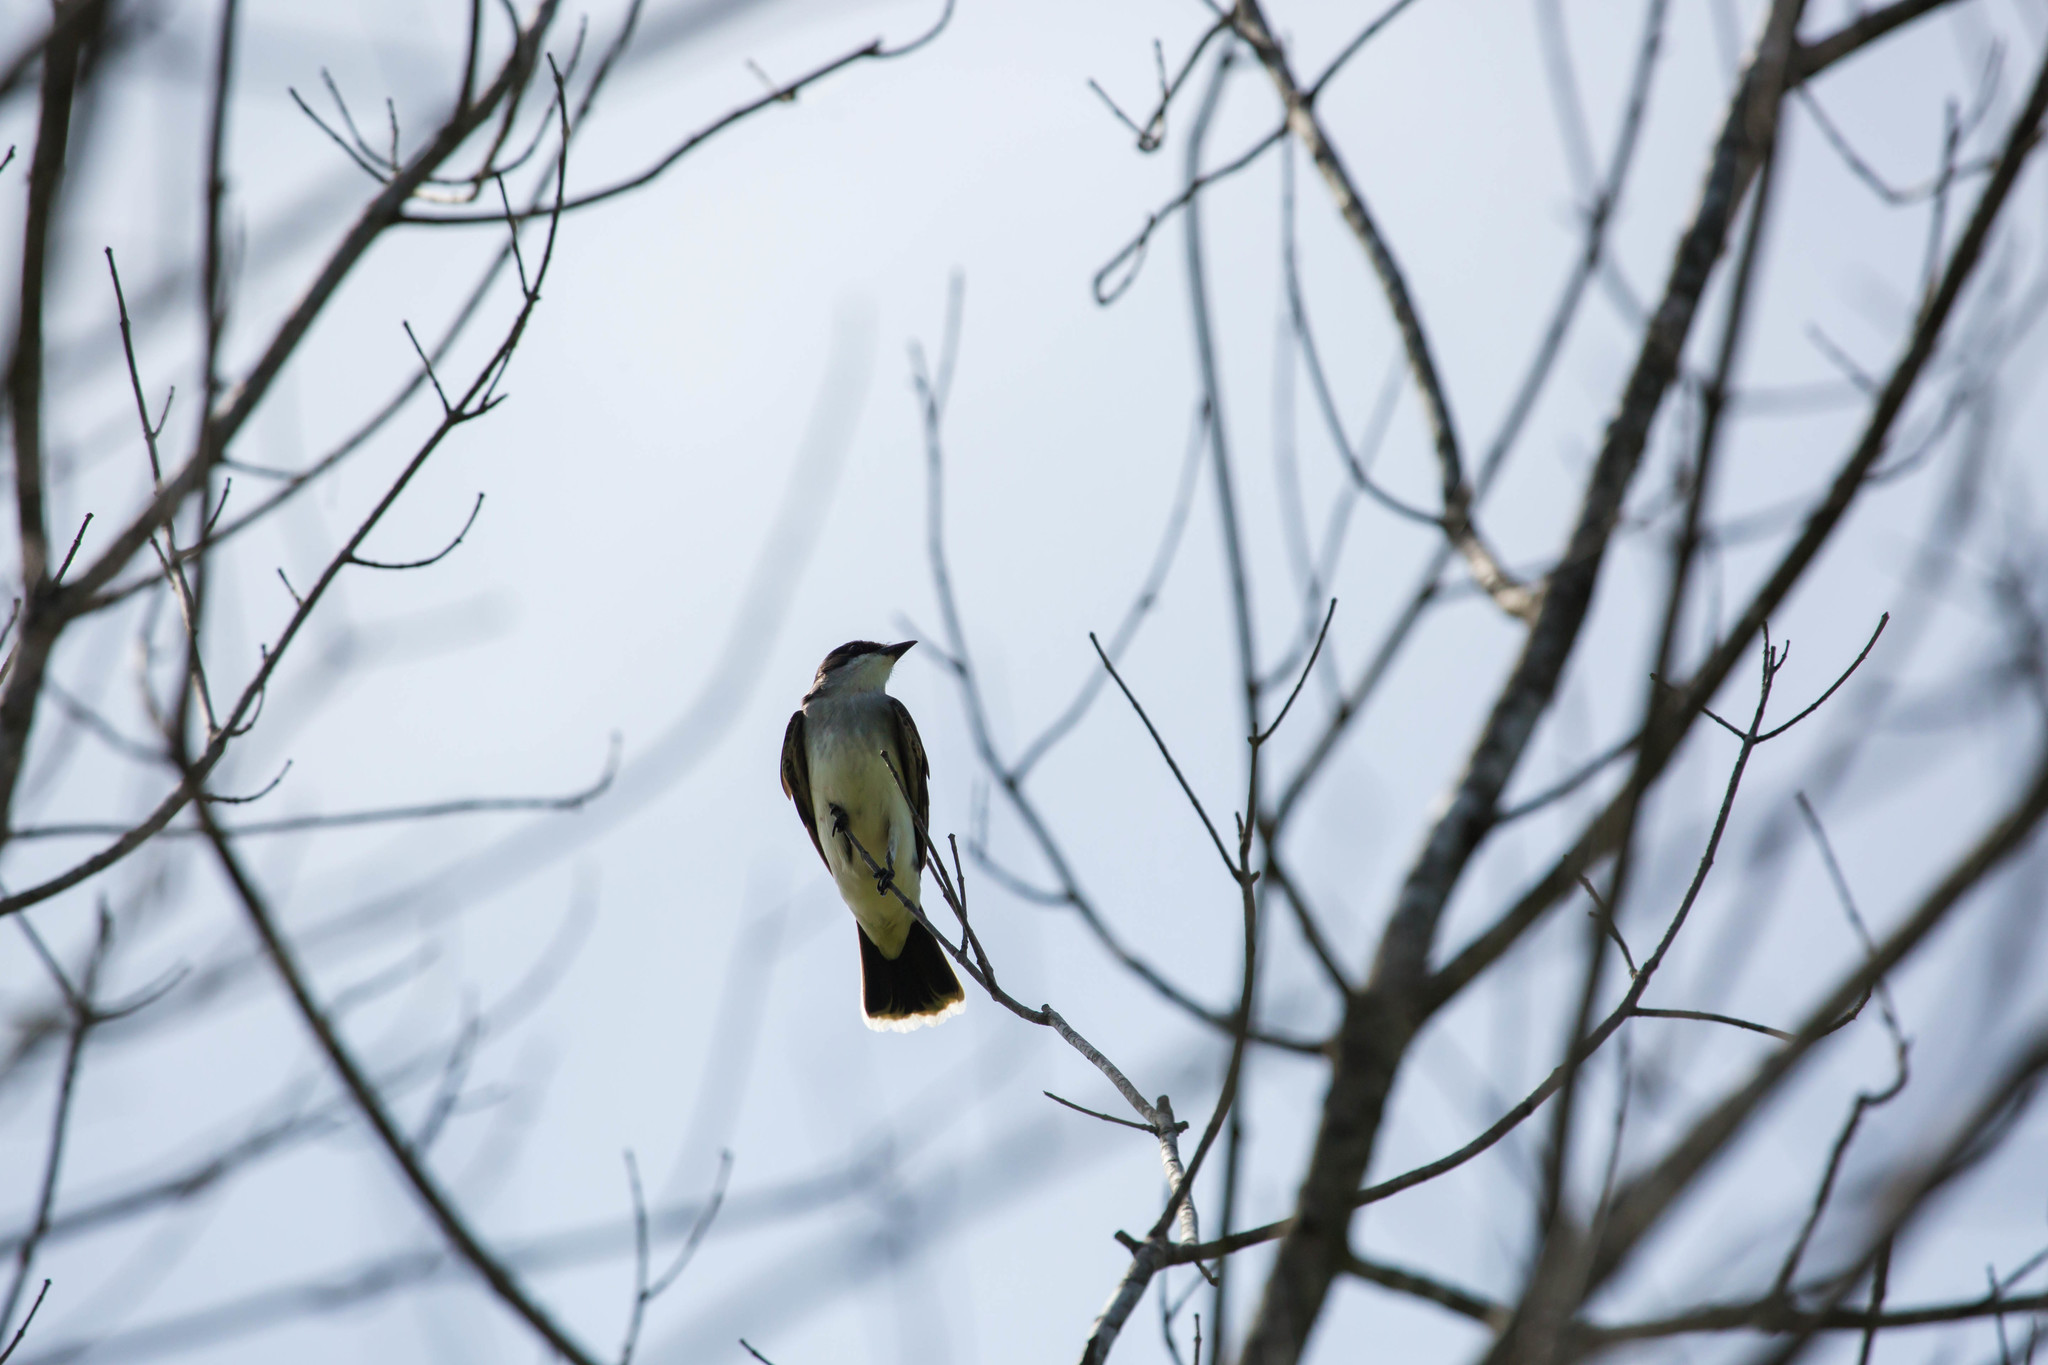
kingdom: Animalia
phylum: Chordata
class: Aves
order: Passeriformes
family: Tyrannidae
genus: Tyrannus
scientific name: Tyrannus tyrannus
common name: Eastern kingbird
